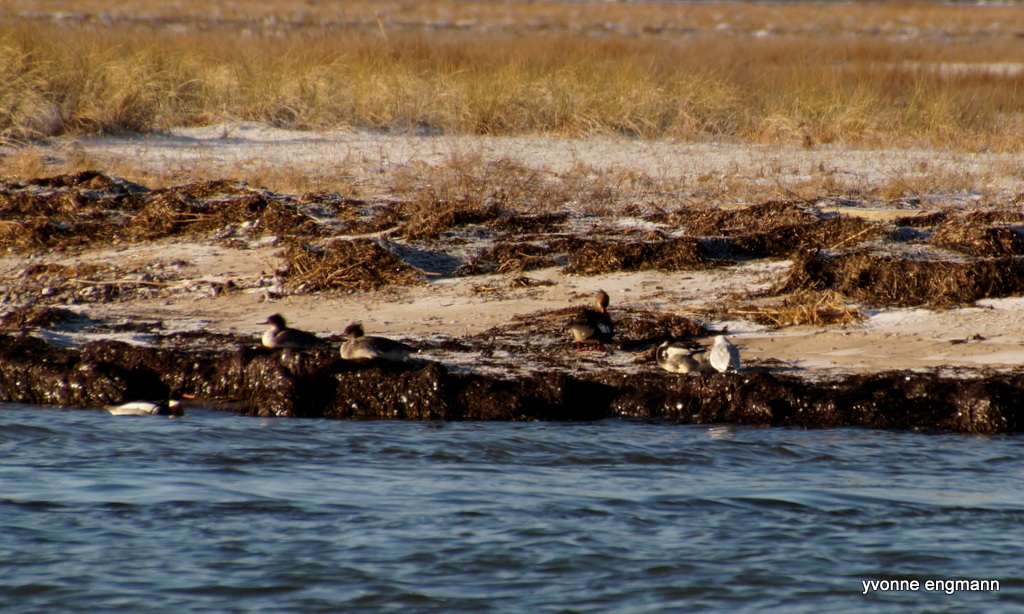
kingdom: Animalia
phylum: Chordata
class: Aves
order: Anseriformes
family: Anatidae
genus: Mergus
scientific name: Mergus serrator
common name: Red-breasted merganser
